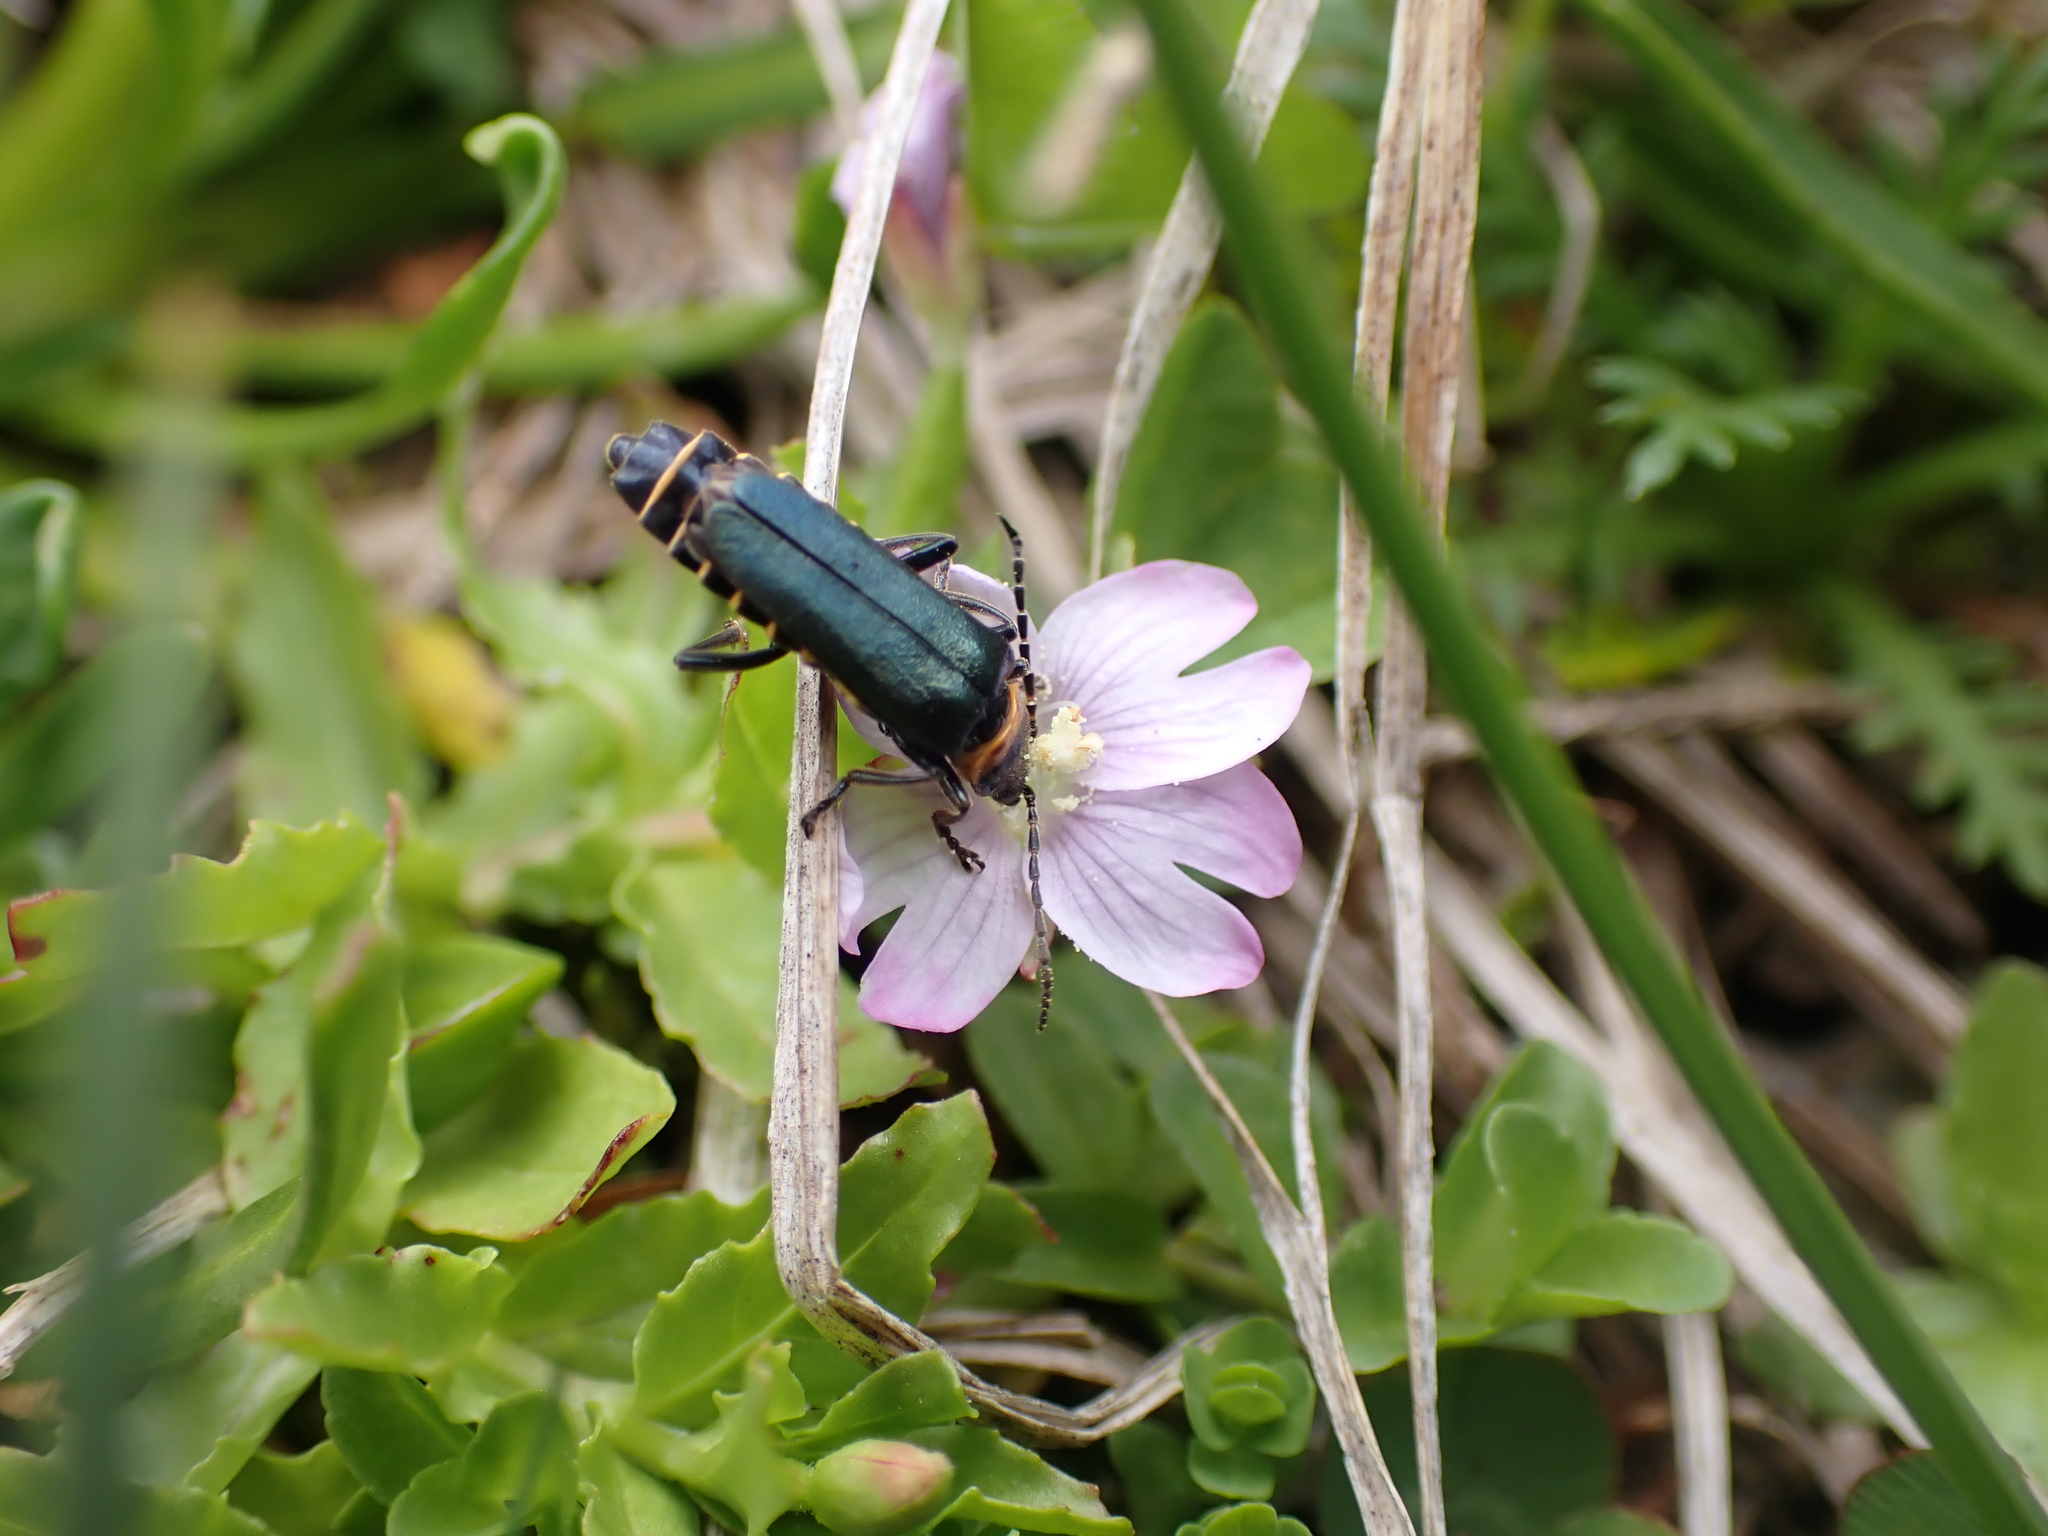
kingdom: Animalia
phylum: Arthropoda
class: Insecta
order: Coleoptera
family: Cantharidae
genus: Chauliognathus
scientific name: Chauliognathus
